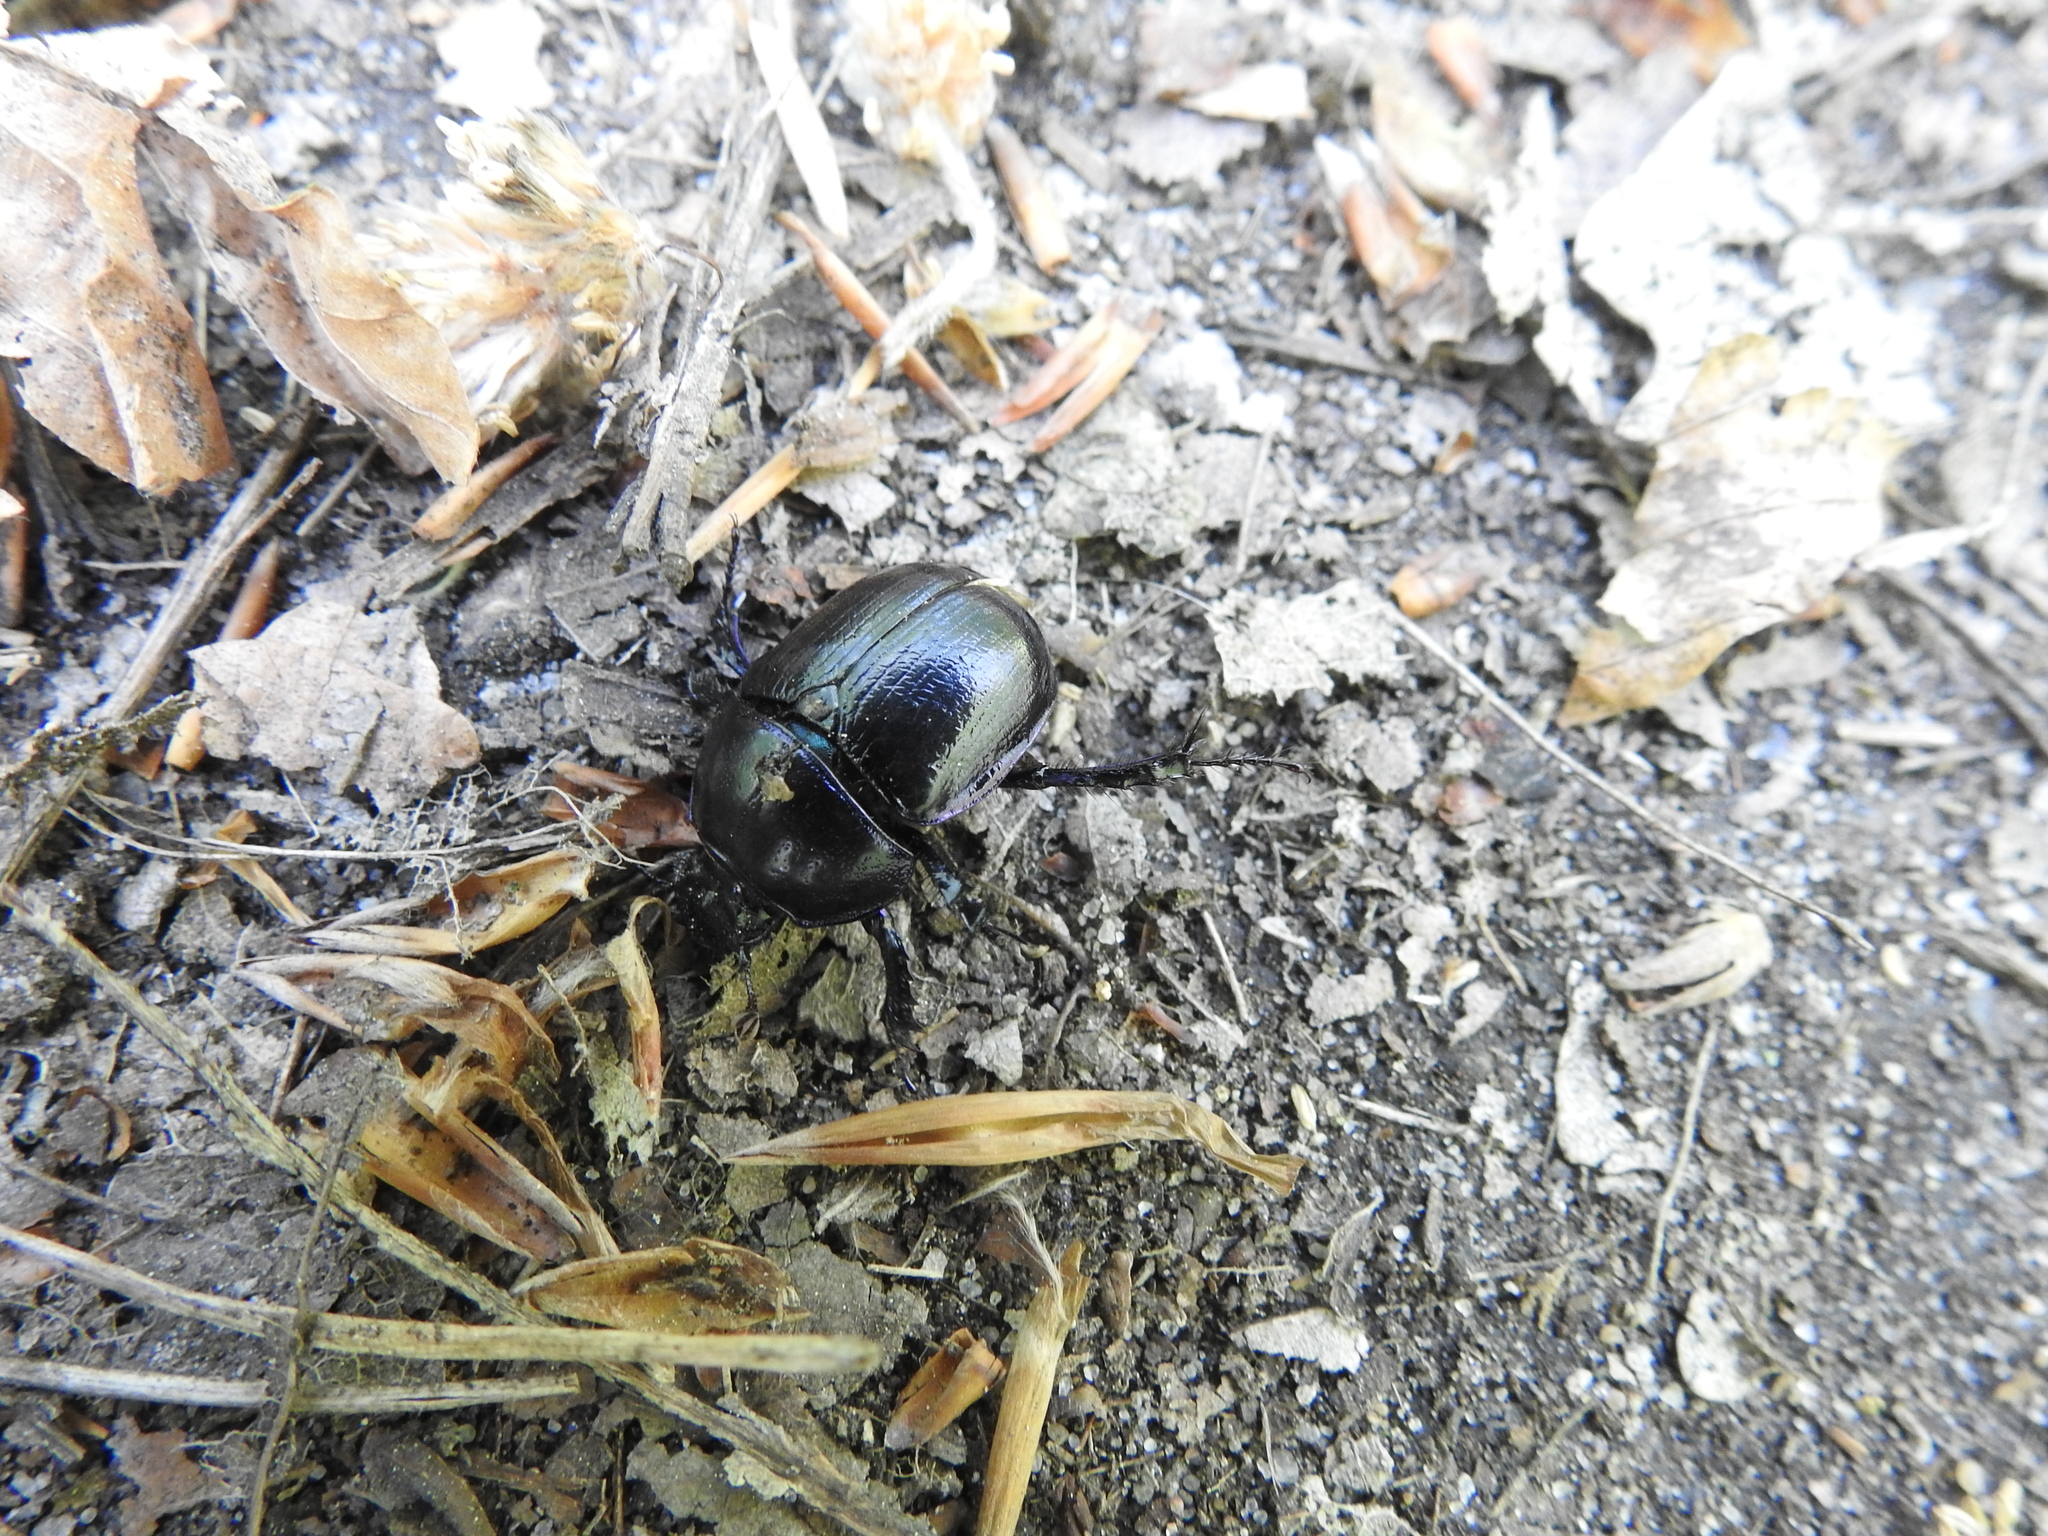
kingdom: Animalia
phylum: Arthropoda
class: Insecta
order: Coleoptera
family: Geotrupidae
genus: Anoplotrupes
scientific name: Anoplotrupes stercorosus
